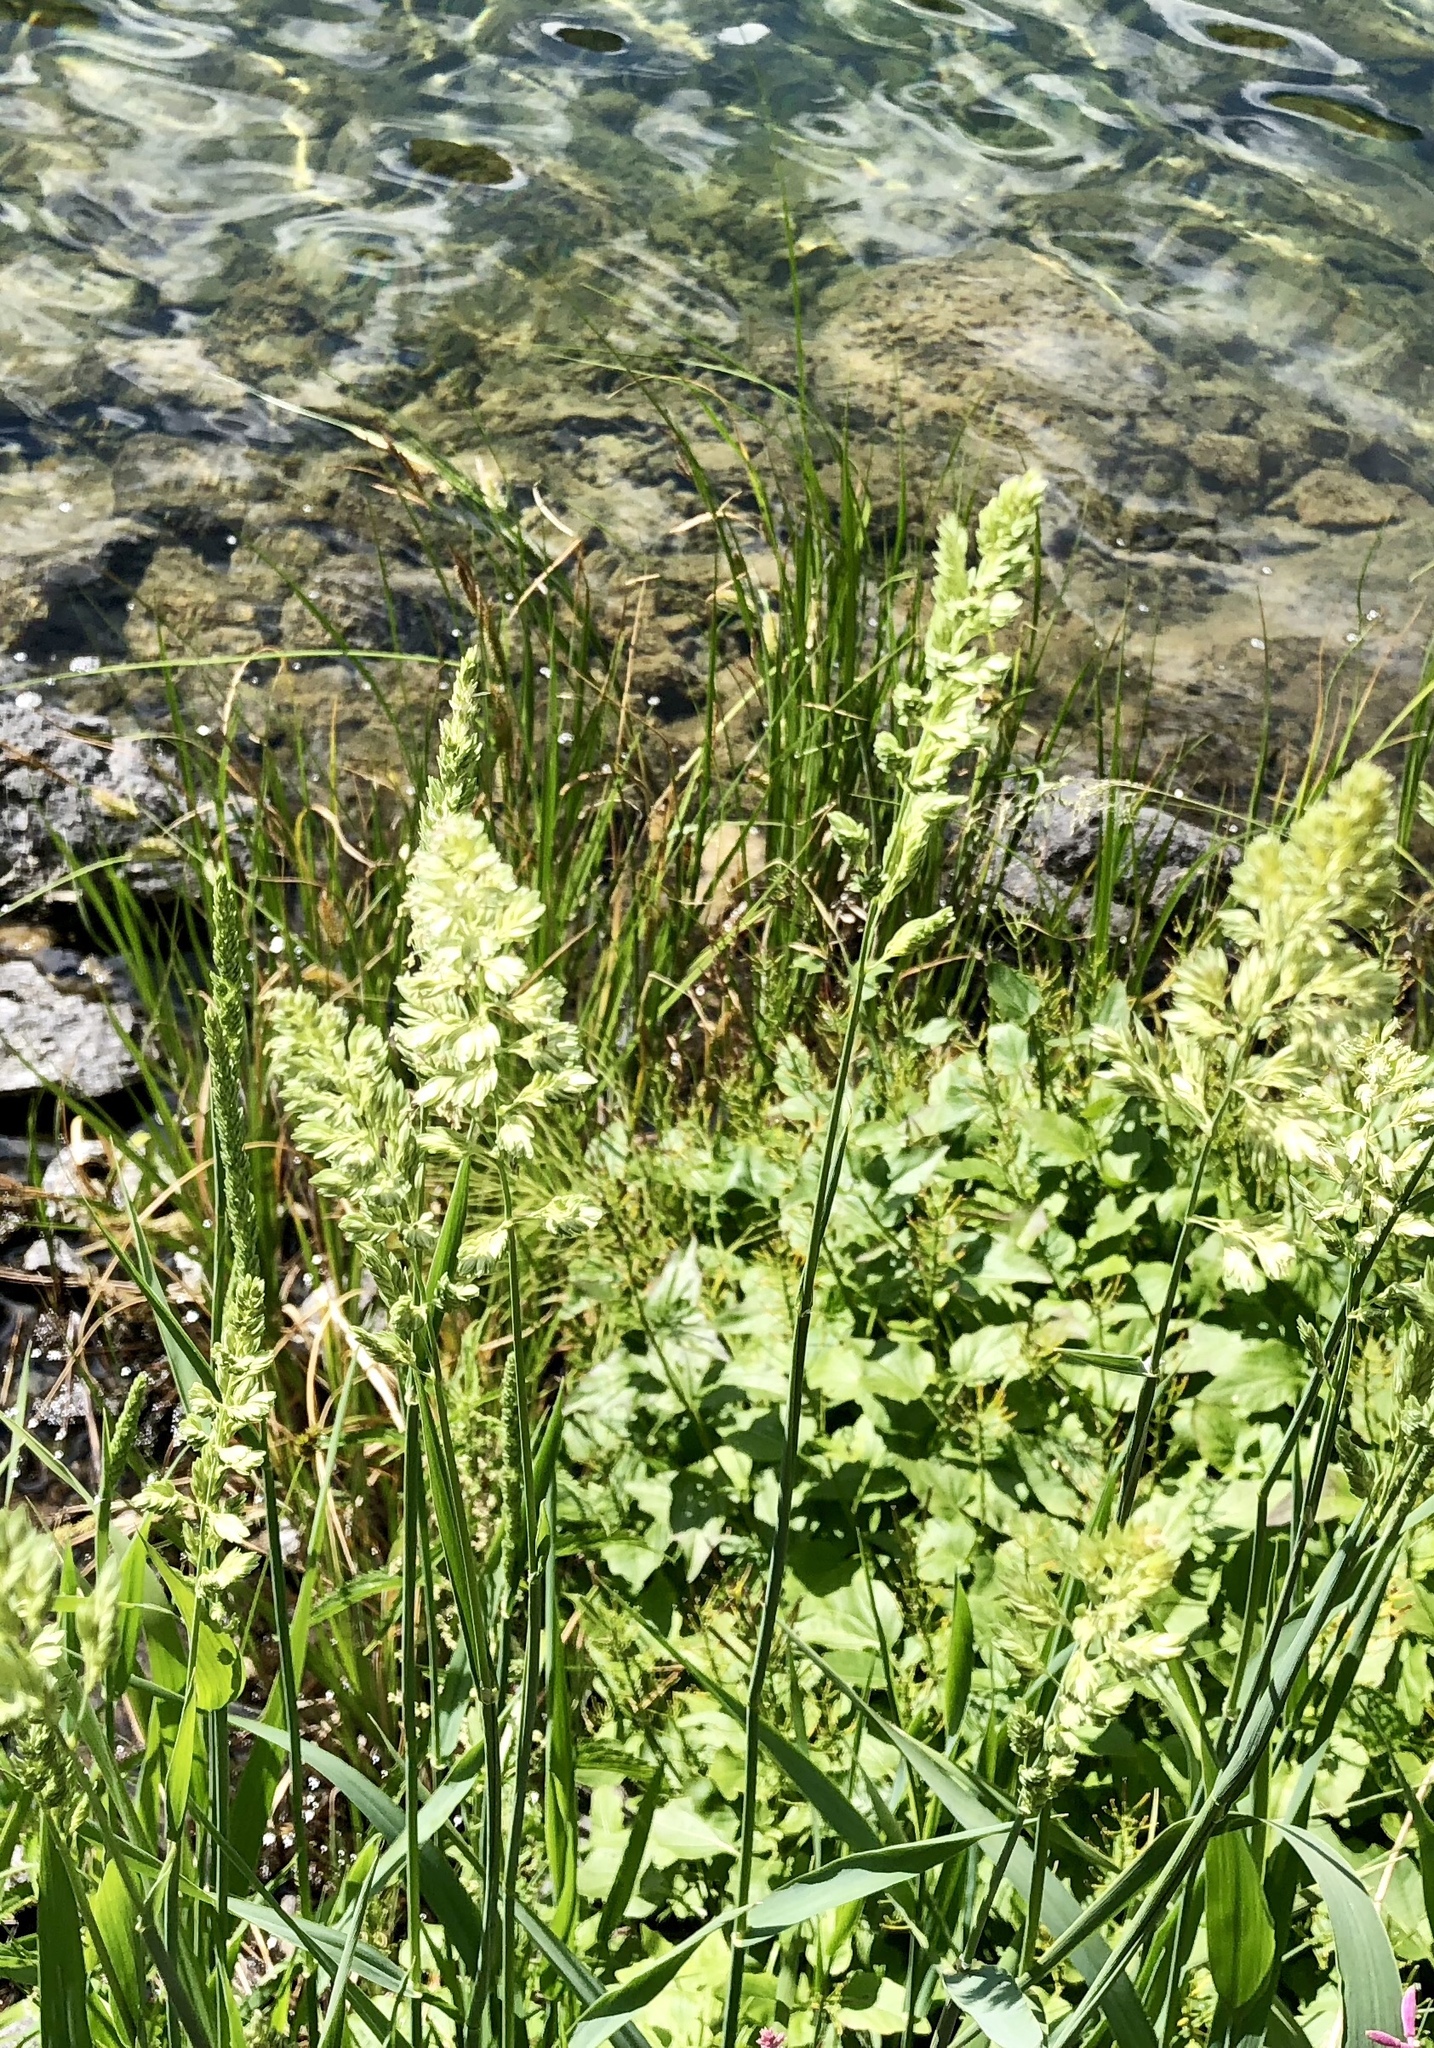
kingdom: Plantae
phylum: Tracheophyta
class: Liliopsida
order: Poales
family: Poaceae
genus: Phalaris
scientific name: Phalaris arundinacea
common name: Reed canary-grass
